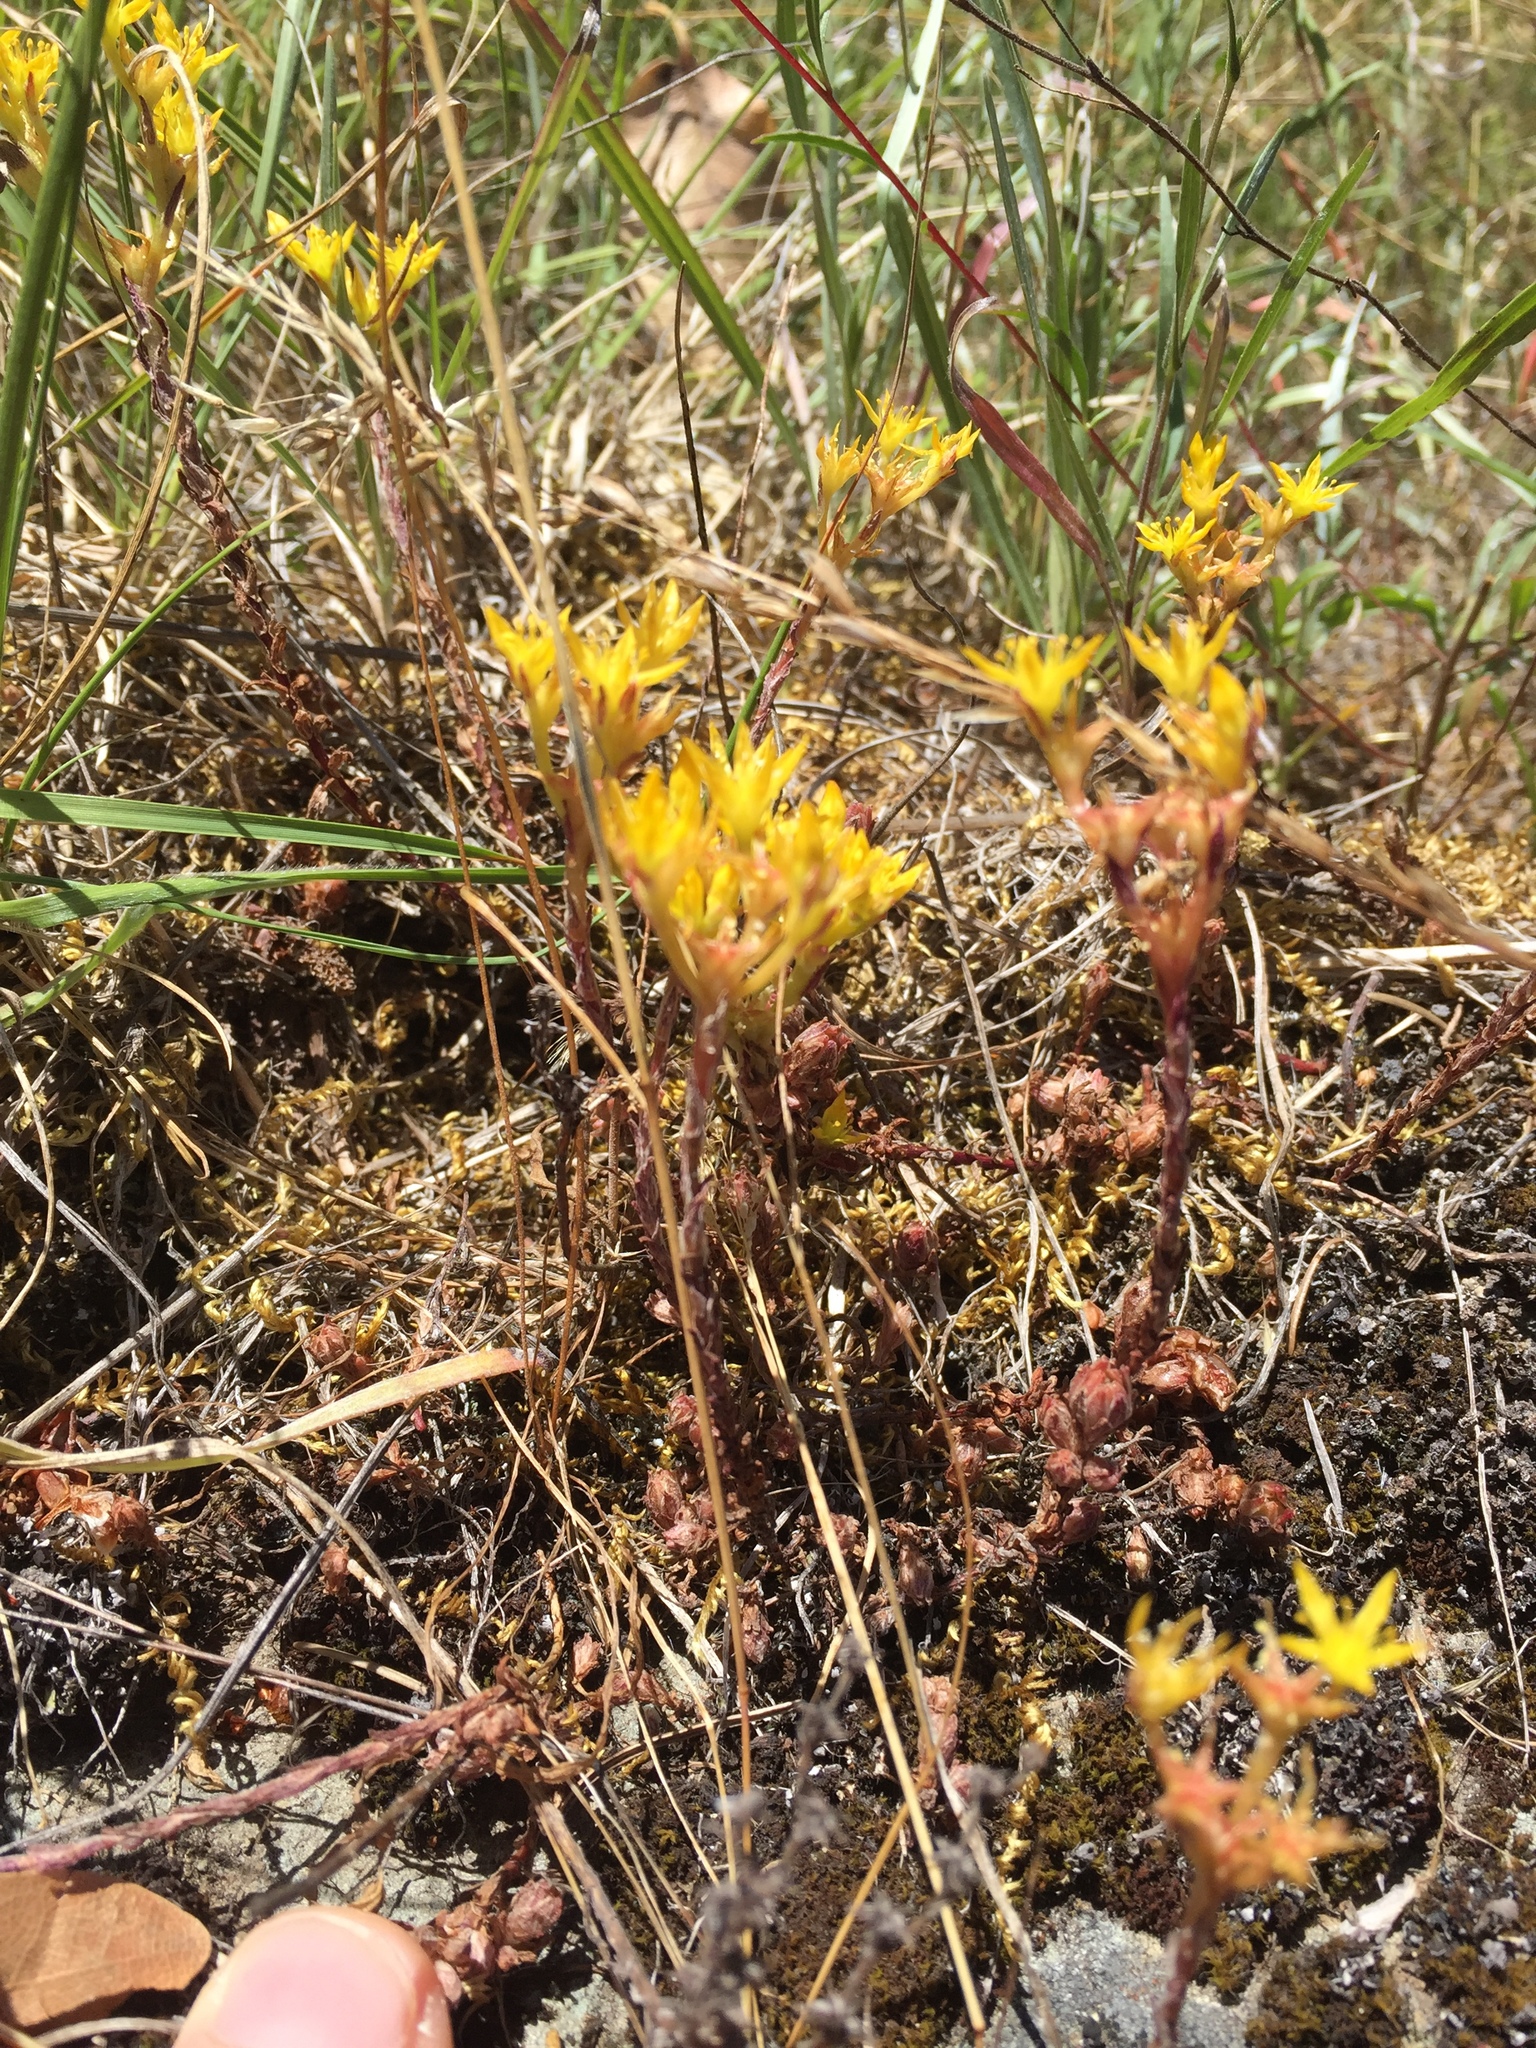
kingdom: Plantae
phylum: Tracheophyta
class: Magnoliopsida
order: Saxifragales
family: Crassulaceae
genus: Sedum
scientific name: Sedum spathulifolium
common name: Colorado stonecrop
